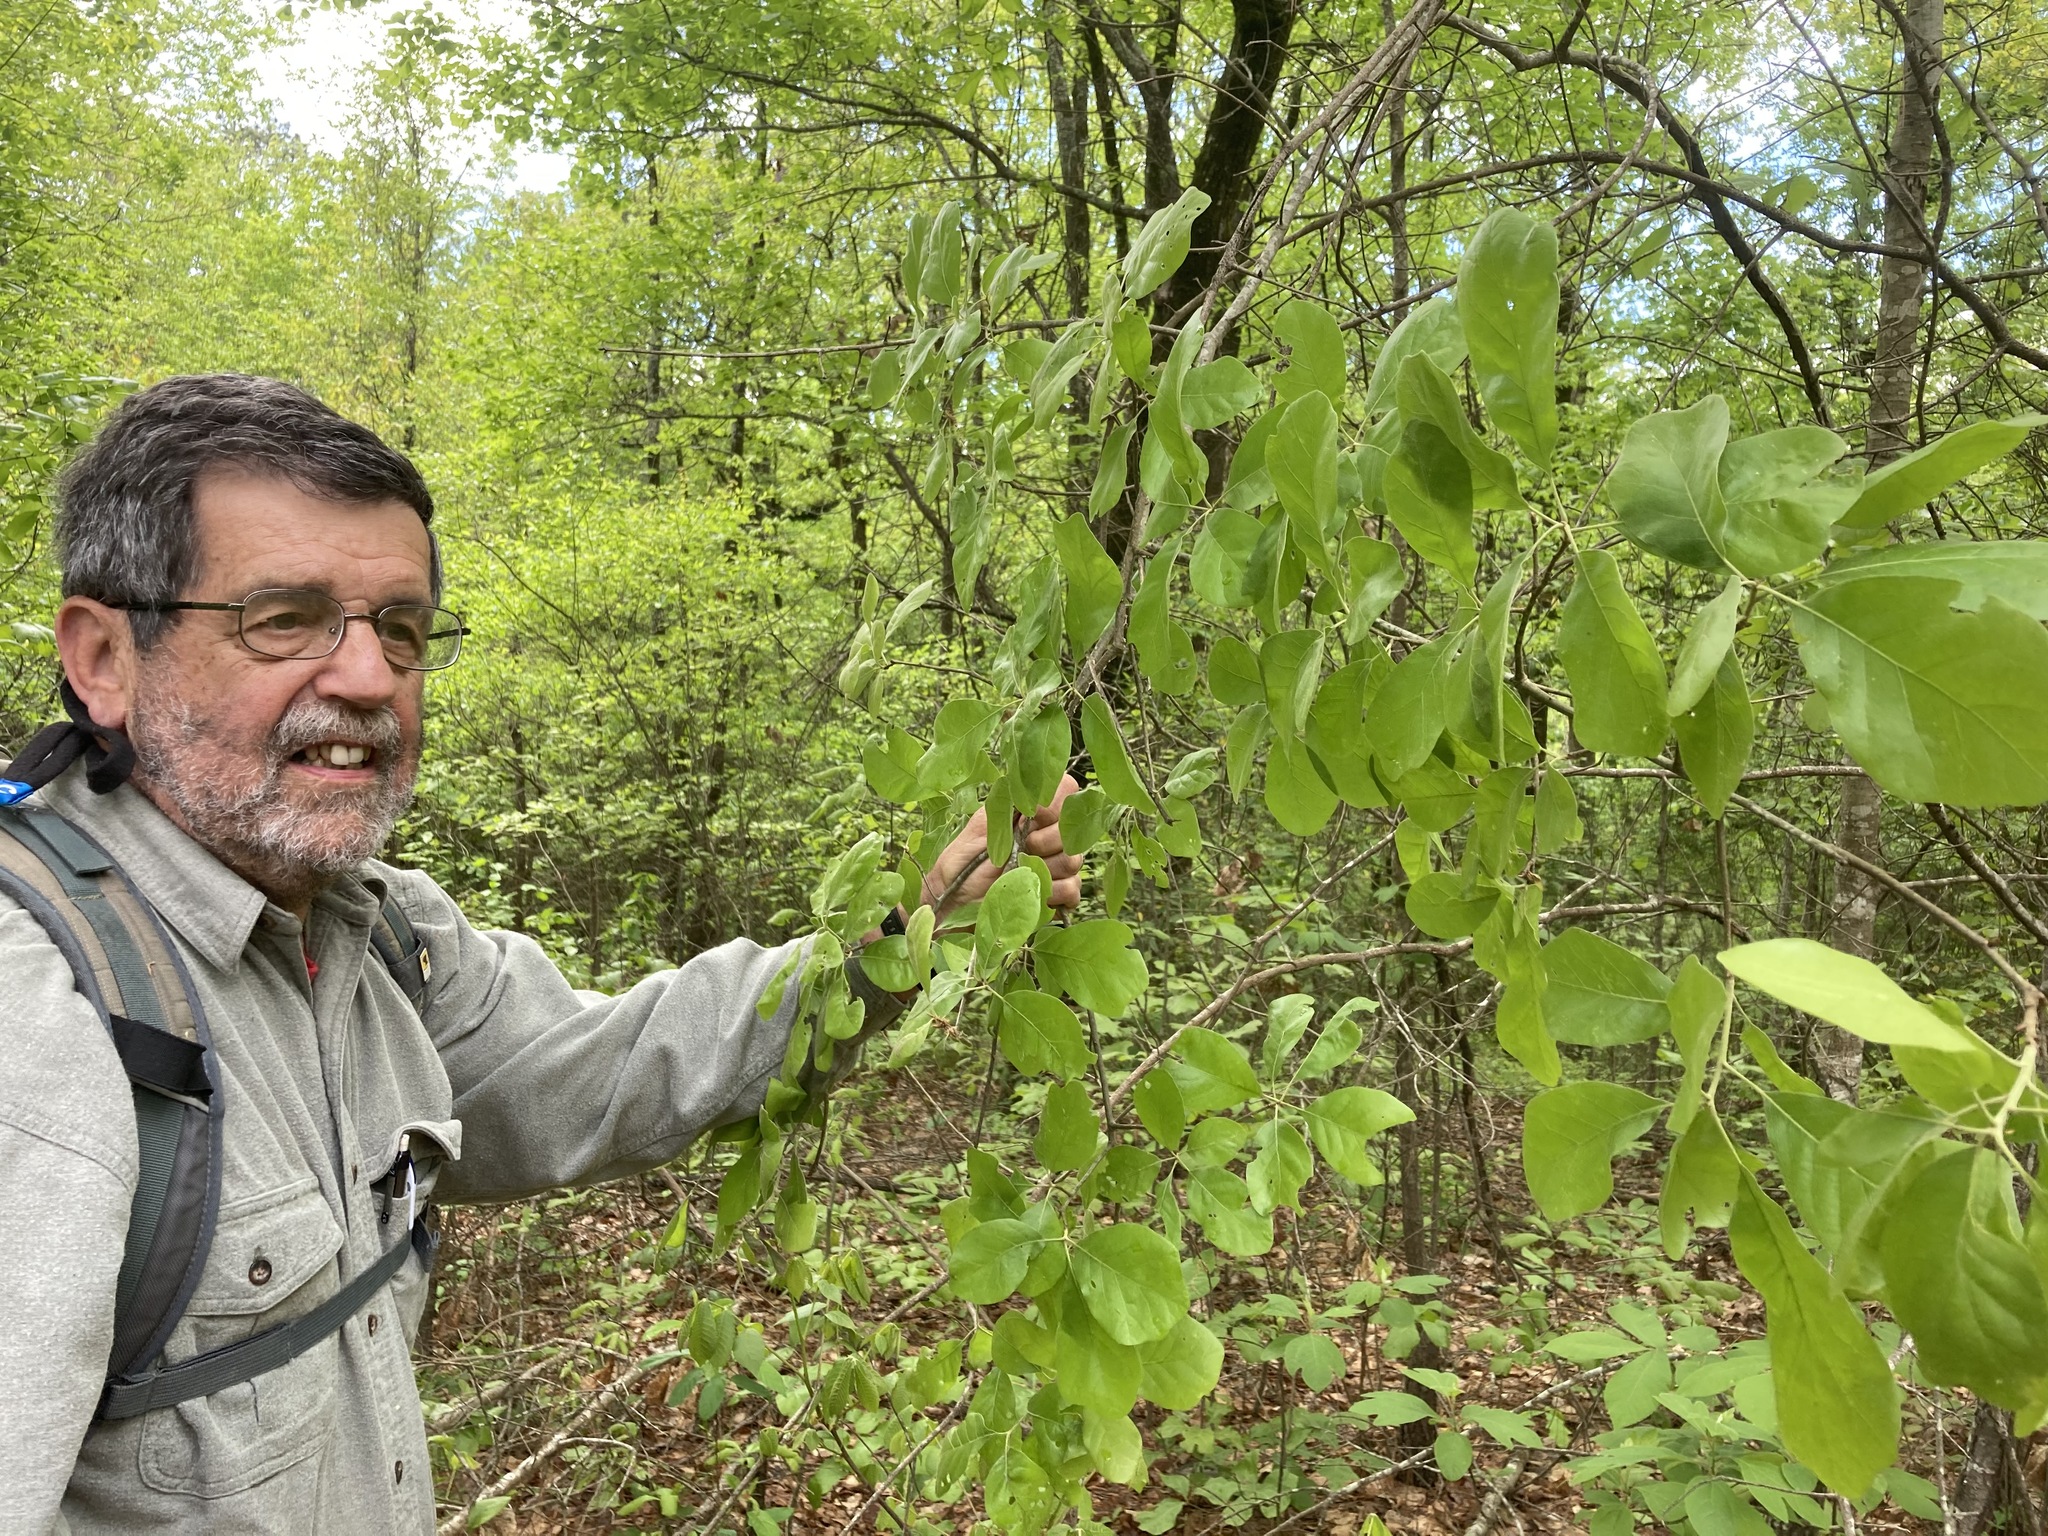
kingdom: Plantae
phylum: Tracheophyta
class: Magnoliopsida
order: Fagales
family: Fagaceae
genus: Quercus
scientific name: Quercus arkansana
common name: Arkansas oak
